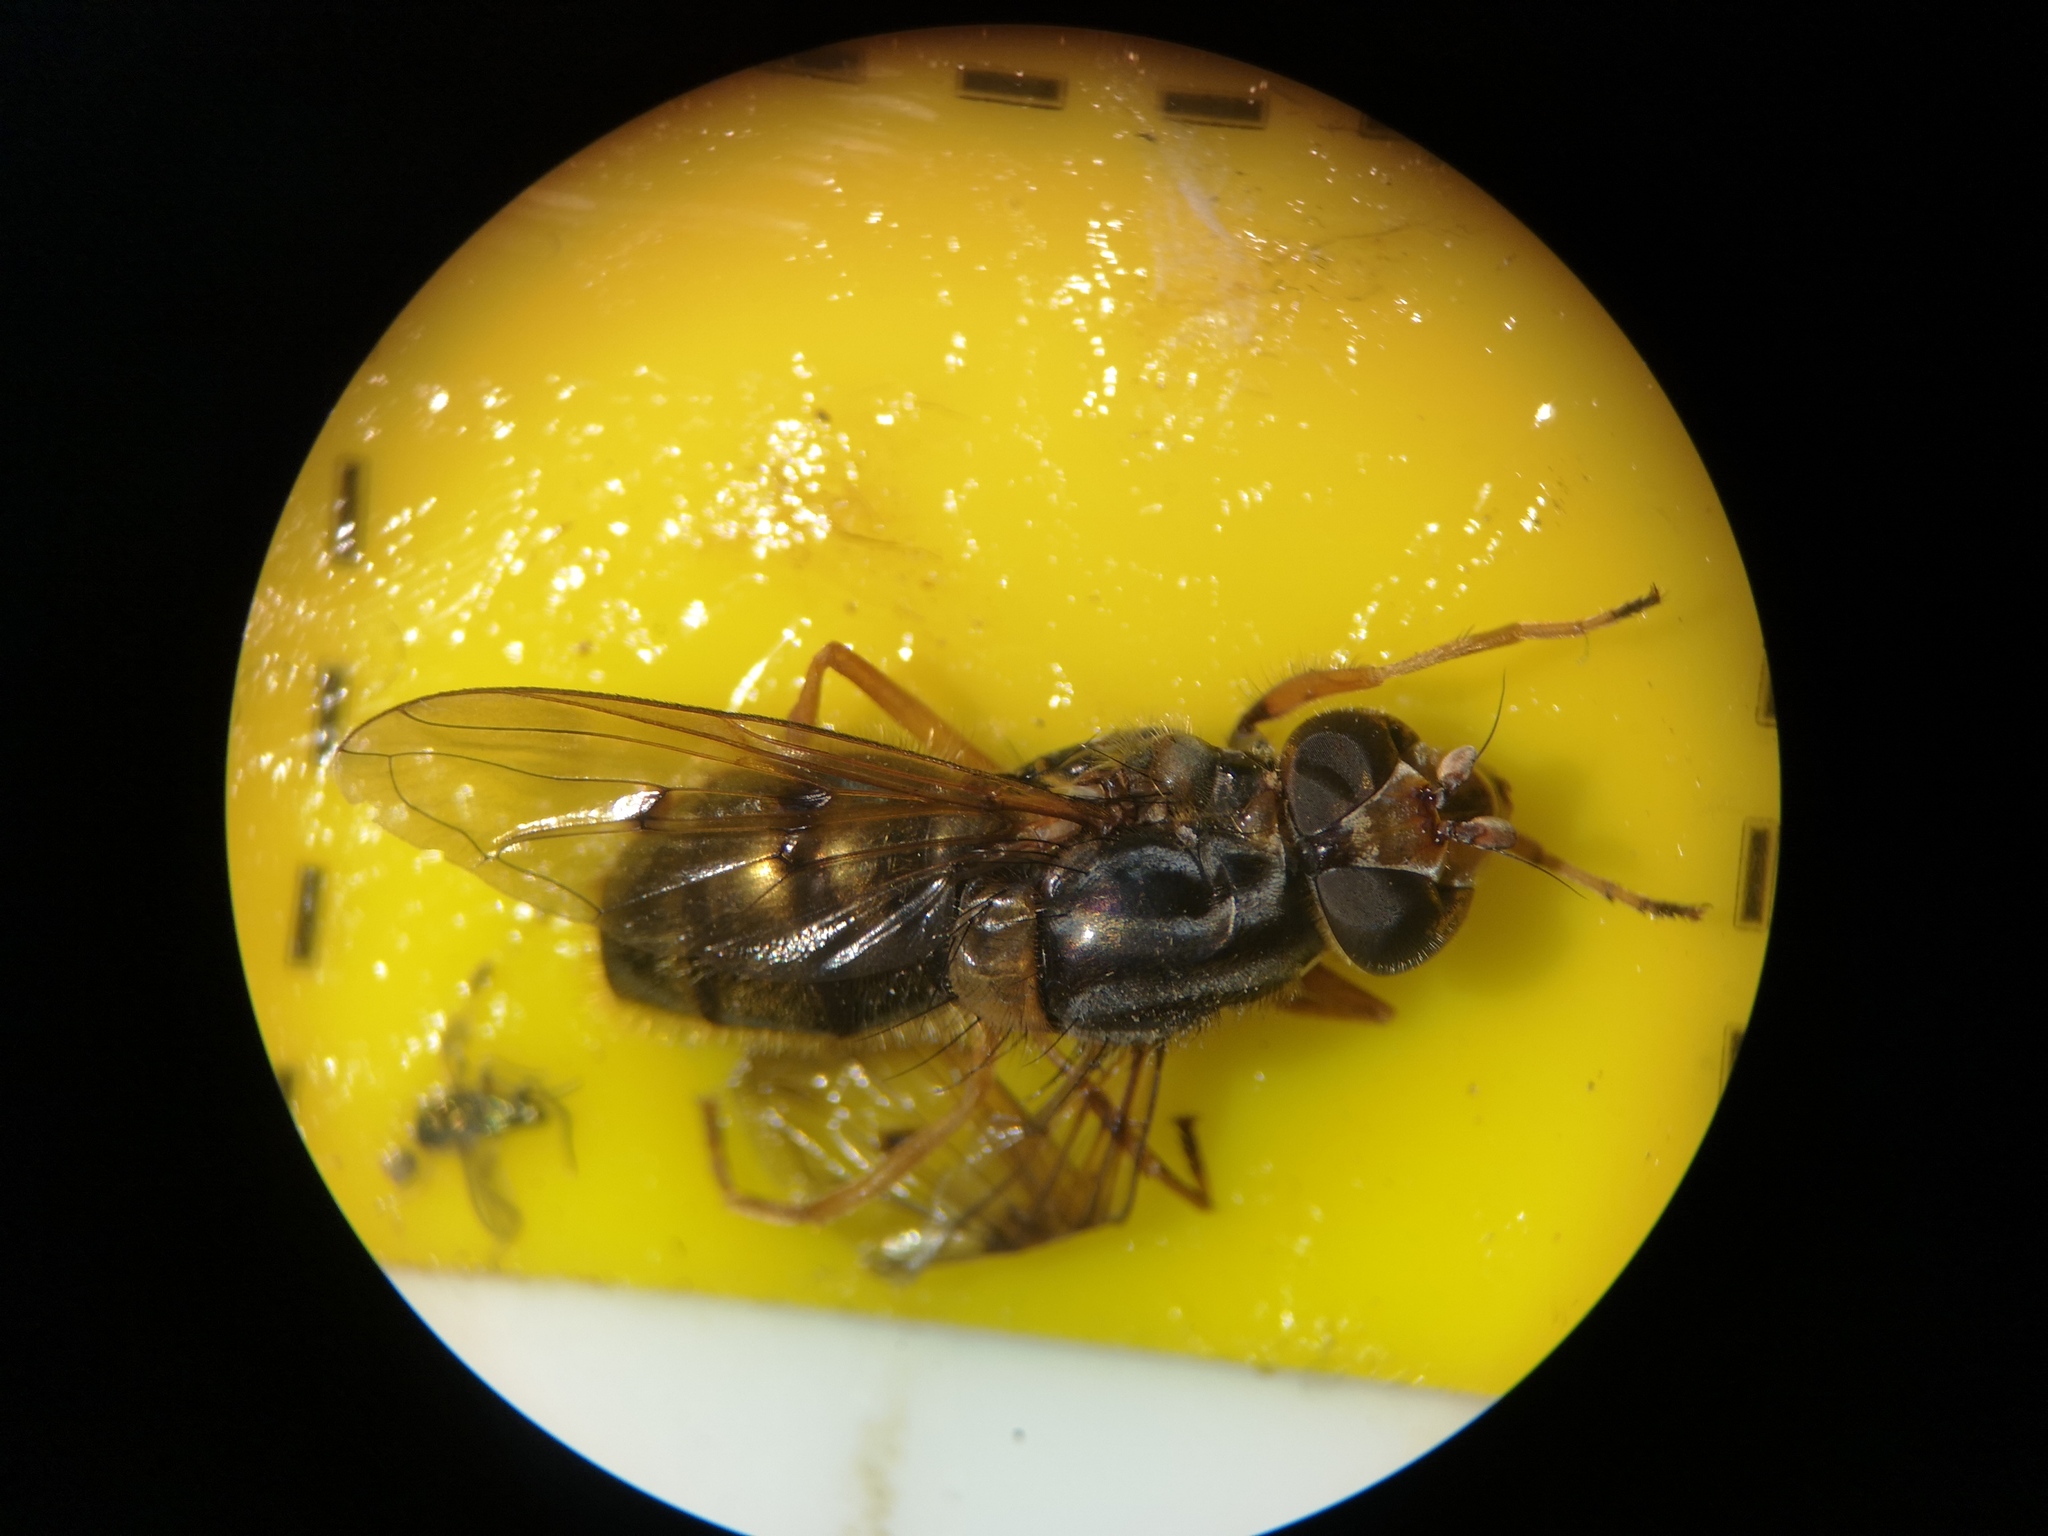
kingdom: Animalia
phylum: Arthropoda
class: Insecta
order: Diptera
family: Syrphidae
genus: Ferdinandea
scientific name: Ferdinandea cuprea
